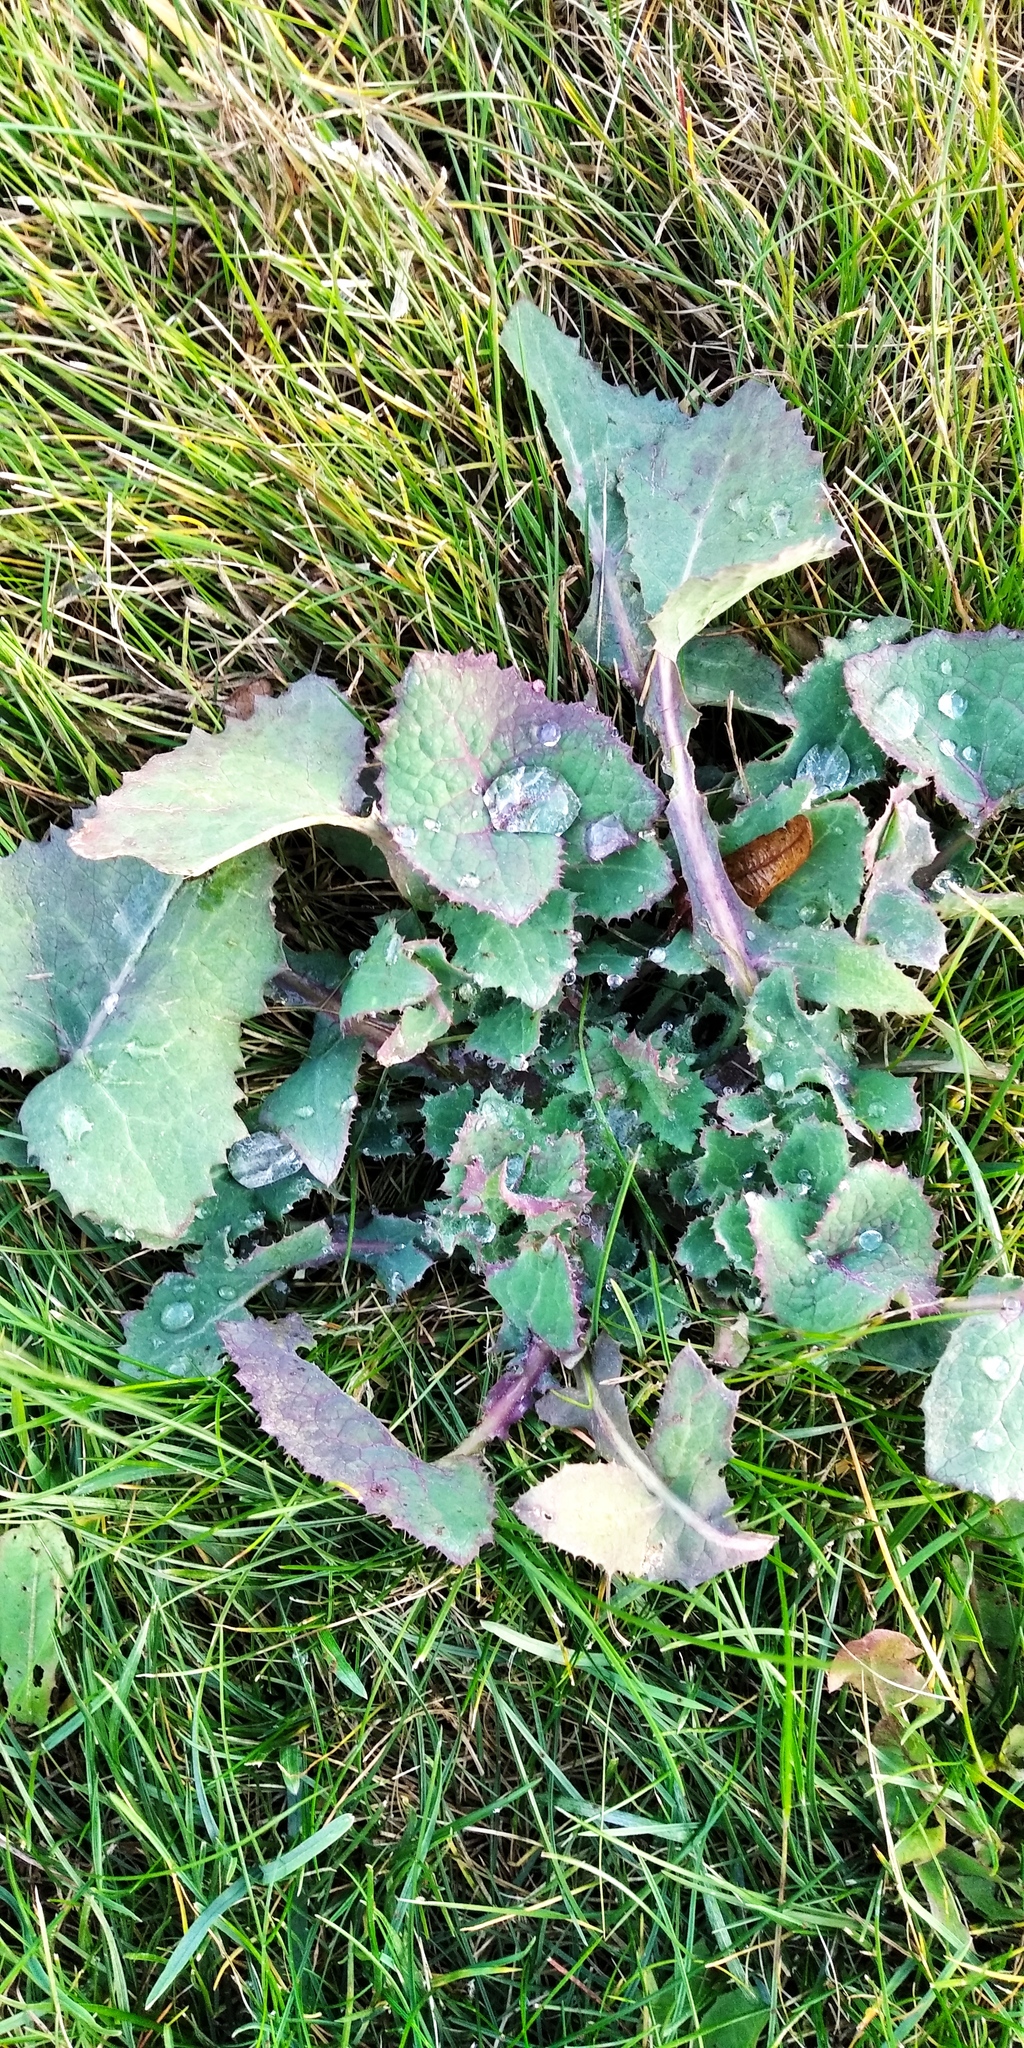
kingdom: Plantae
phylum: Tracheophyta
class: Magnoliopsida
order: Asterales
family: Asteraceae
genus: Sonchus
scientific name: Sonchus oleraceus
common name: Common sowthistle
